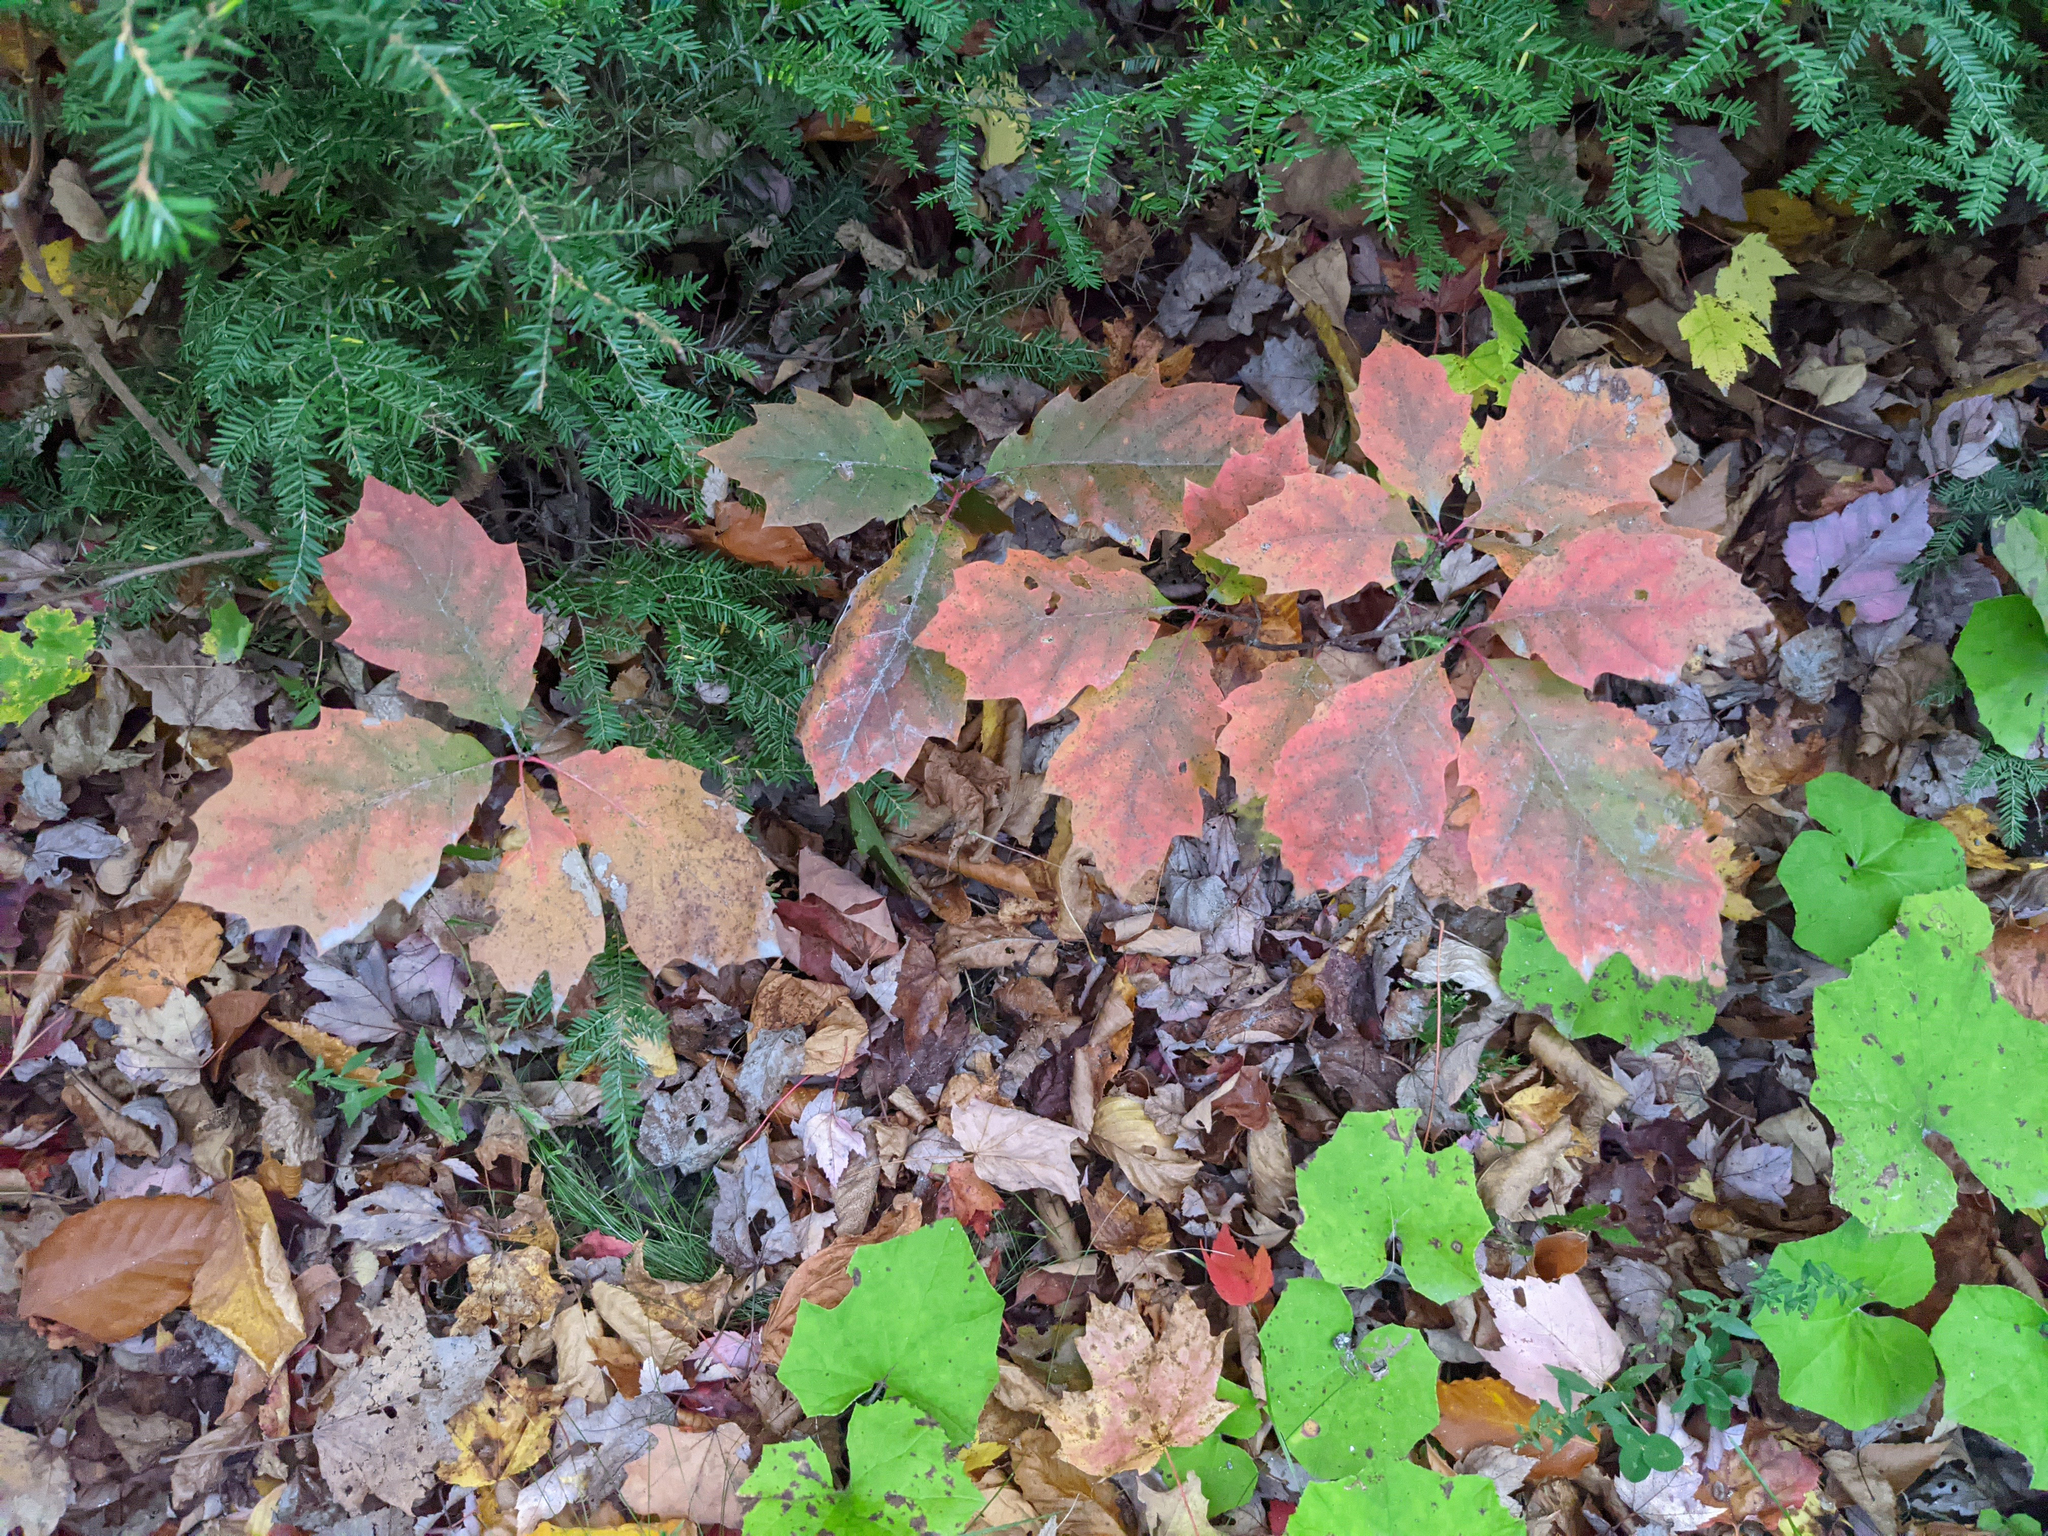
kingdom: Plantae
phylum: Tracheophyta
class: Magnoliopsida
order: Fagales
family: Fagaceae
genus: Quercus
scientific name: Quercus rubra
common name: Red oak
